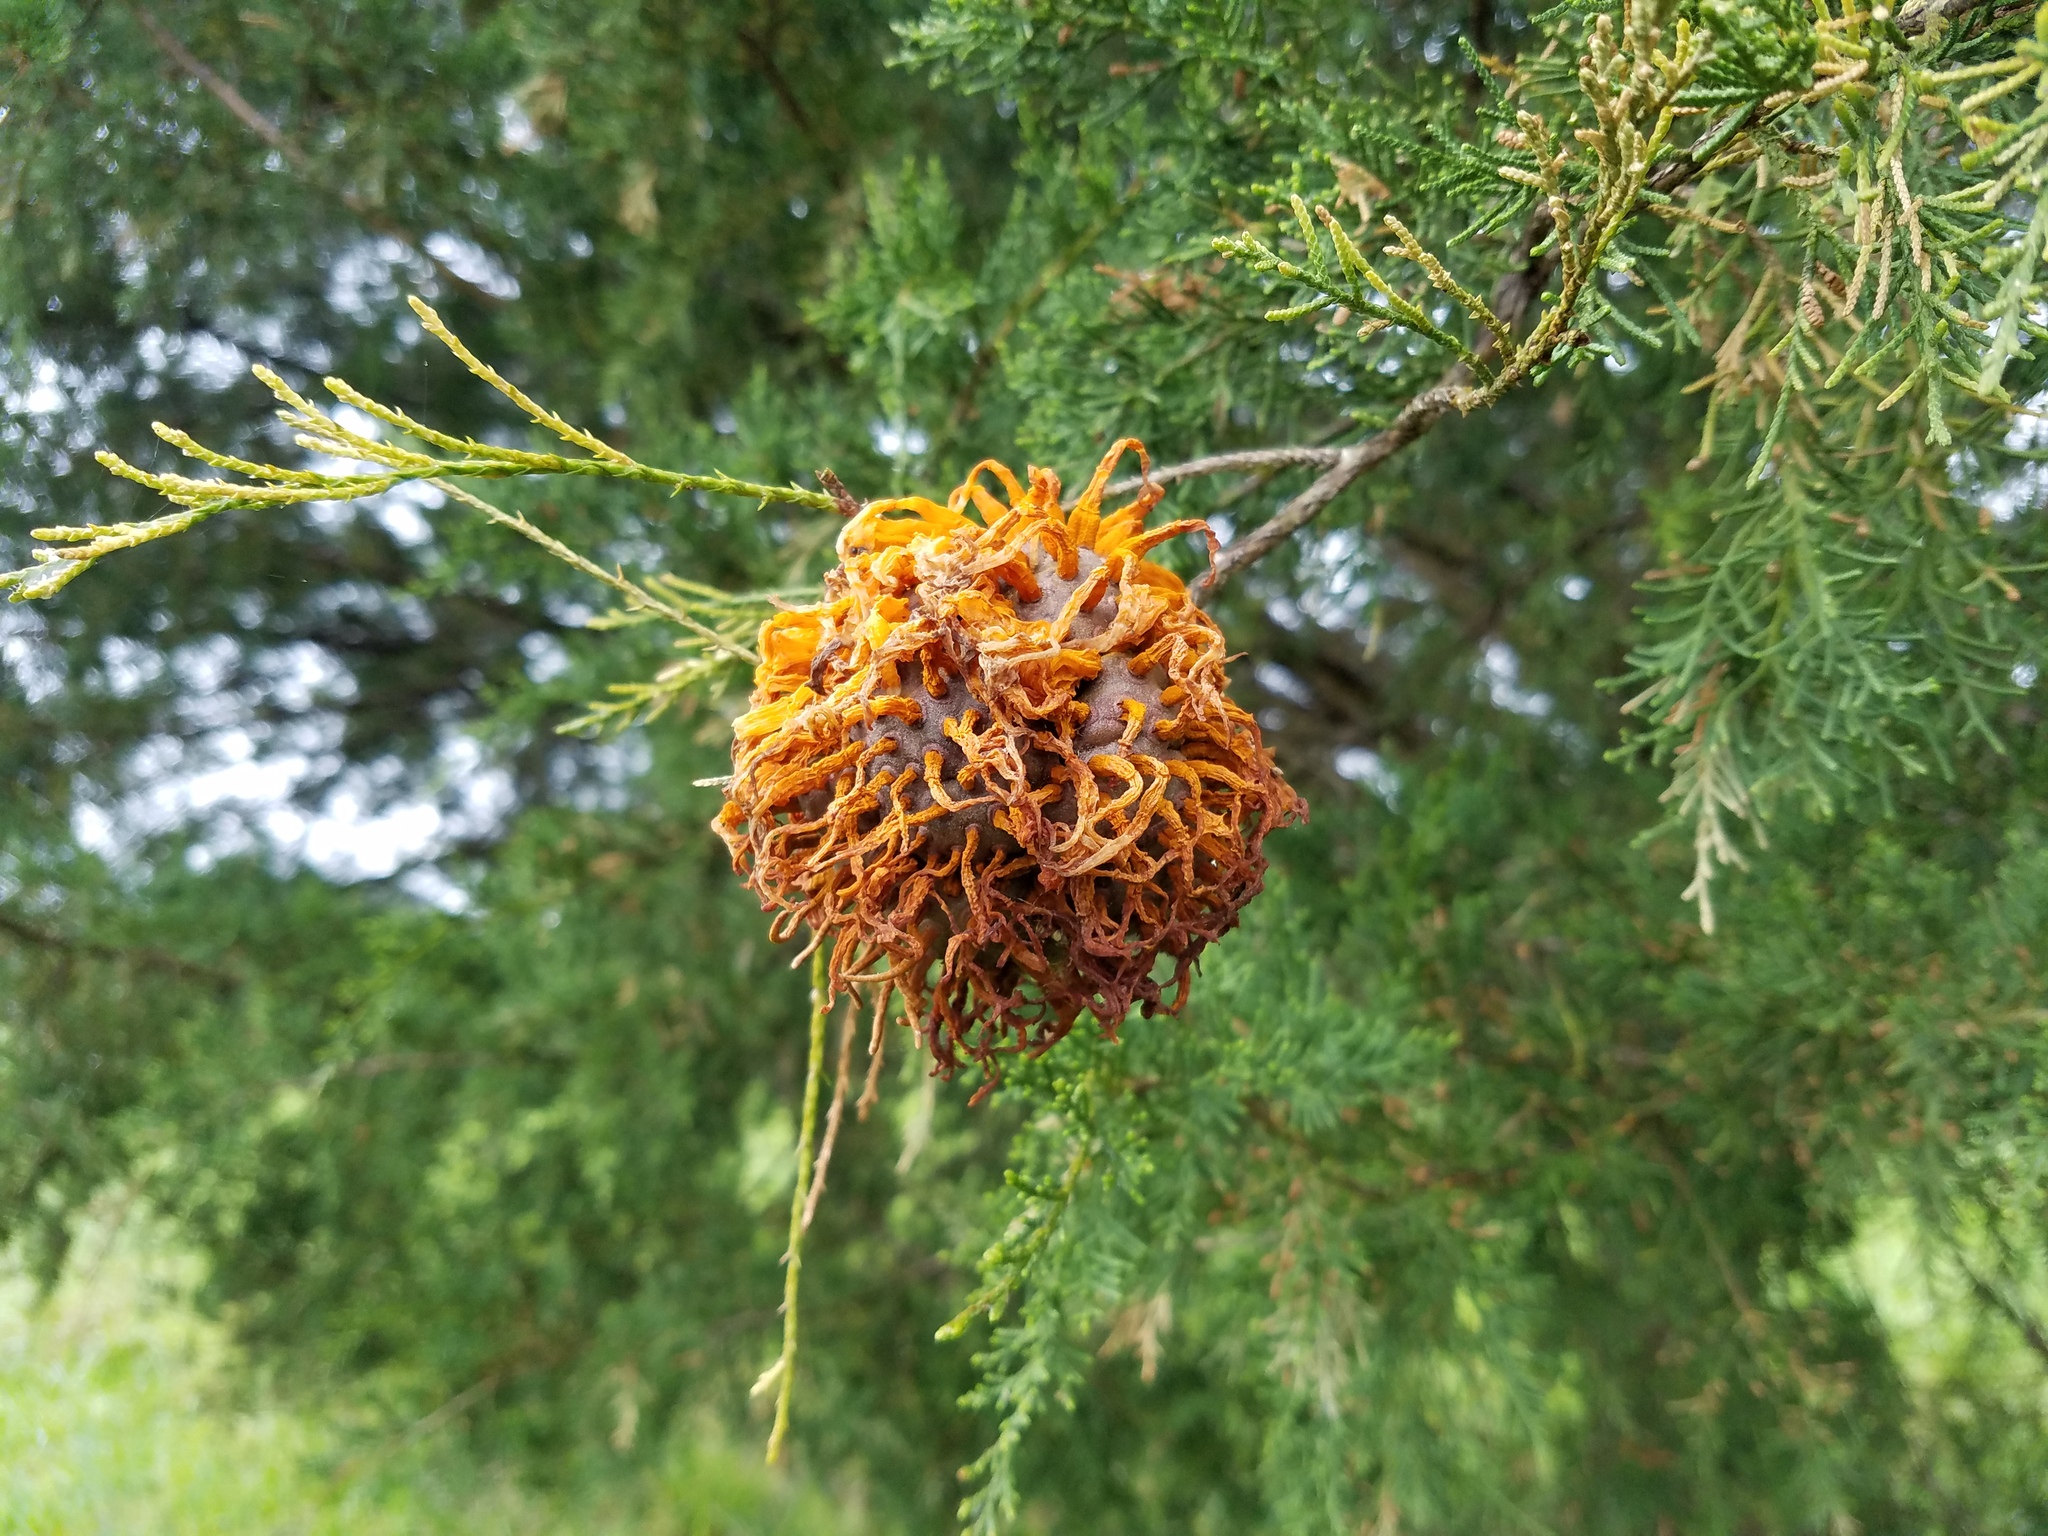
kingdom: Fungi
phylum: Basidiomycota
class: Pucciniomycetes
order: Pucciniales
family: Gymnosporangiaceae
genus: Gymnosporangium
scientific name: Gymnosporangium juniperi-virginianae
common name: Juniper-apple rust
